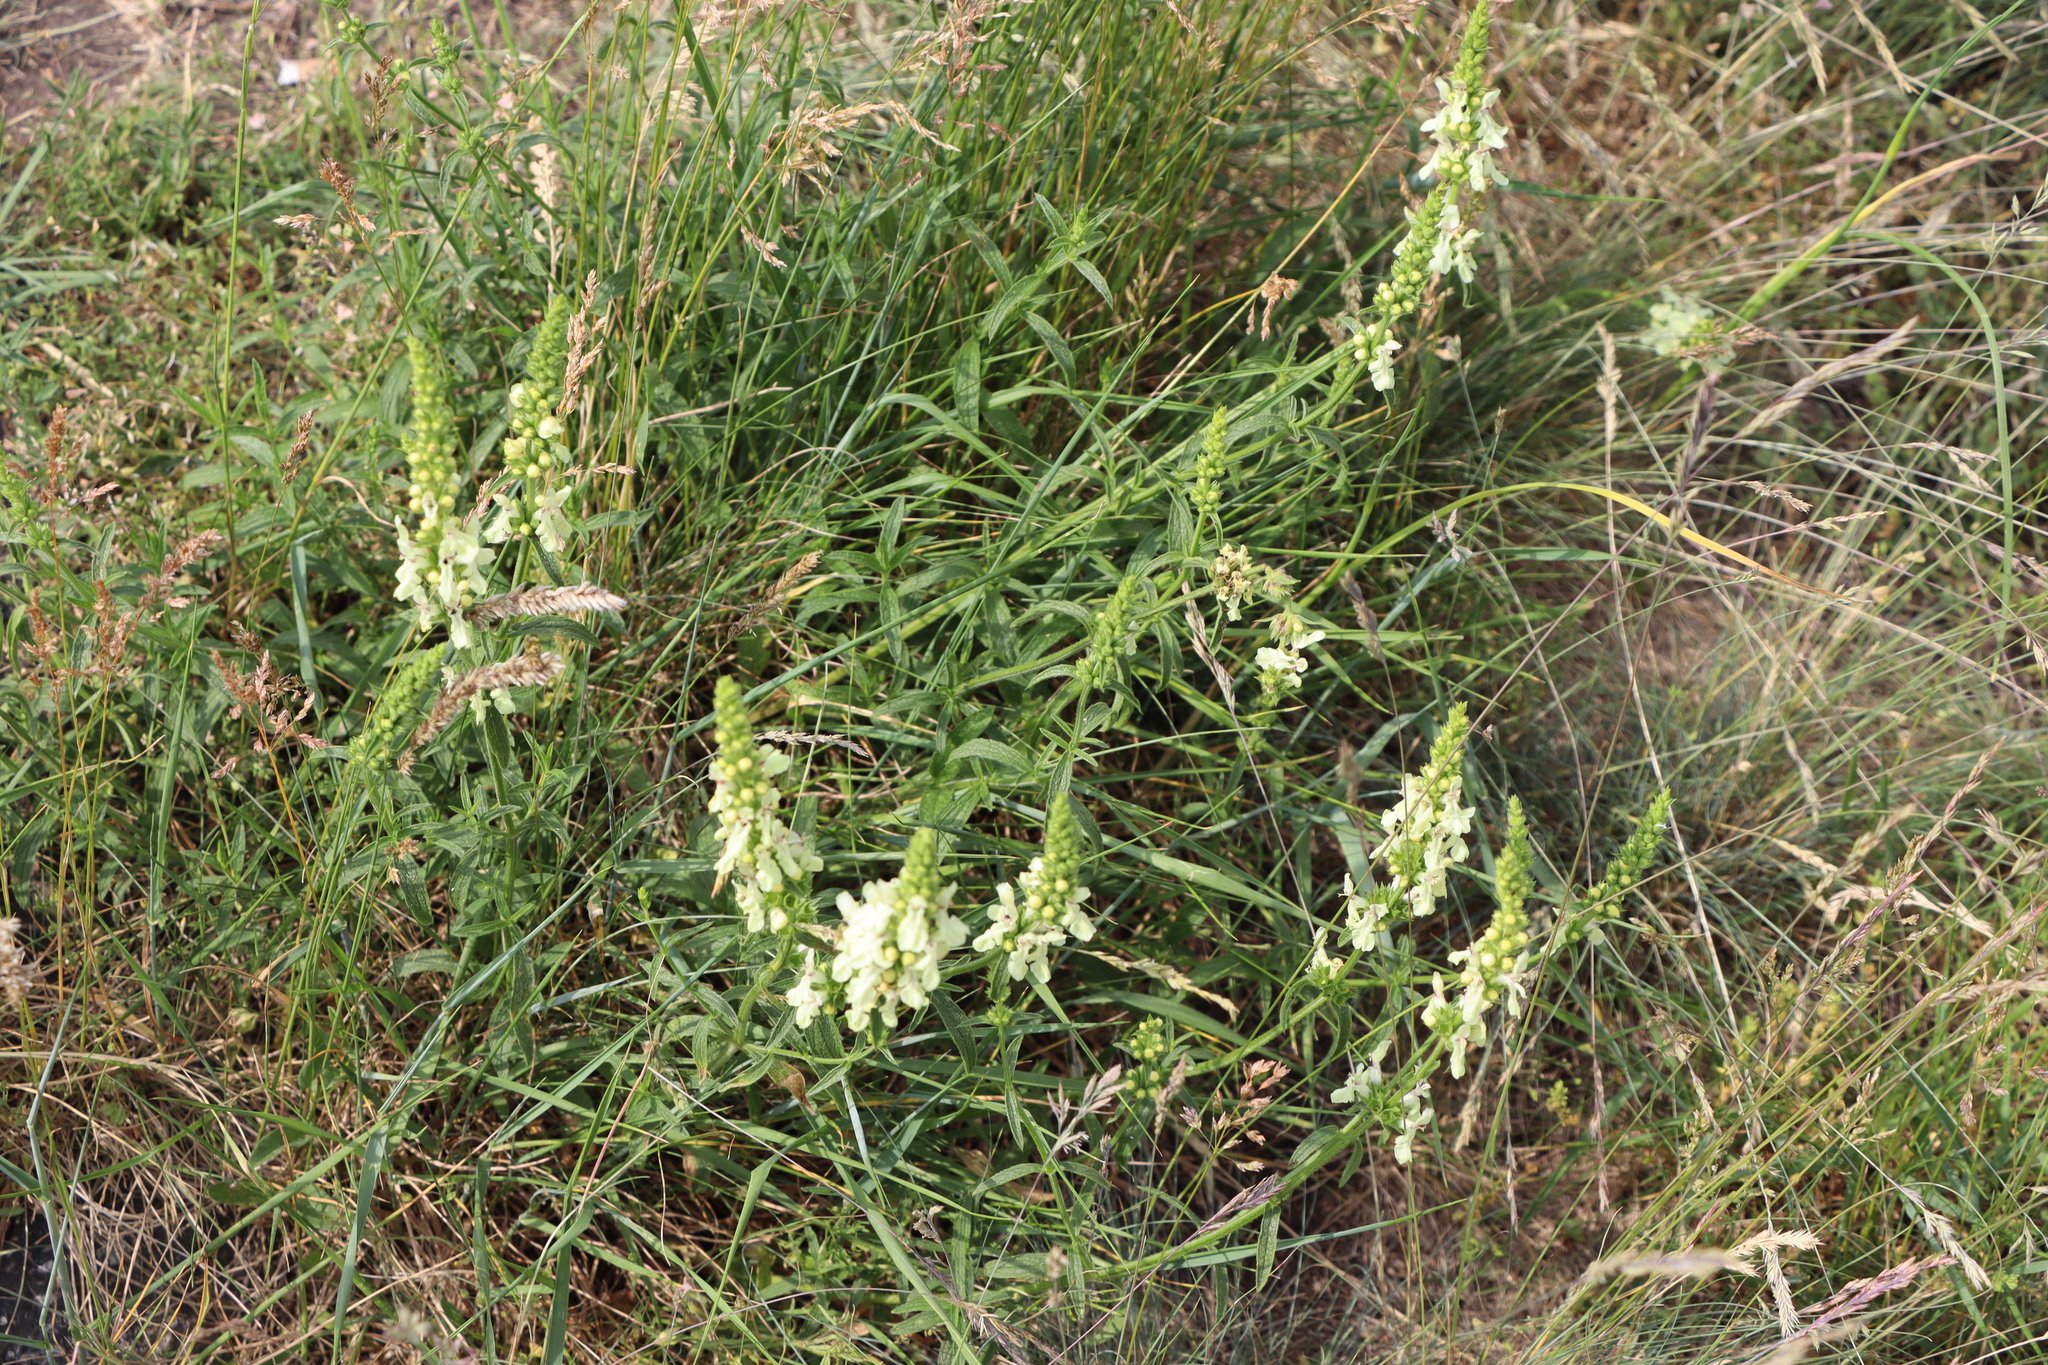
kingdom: Plantae
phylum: Tracheophyta
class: Magnoliopsida
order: Lamiales
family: Lamiaceae
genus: Stachys
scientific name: Stachys recta
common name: Perennial yellow-woundwort
